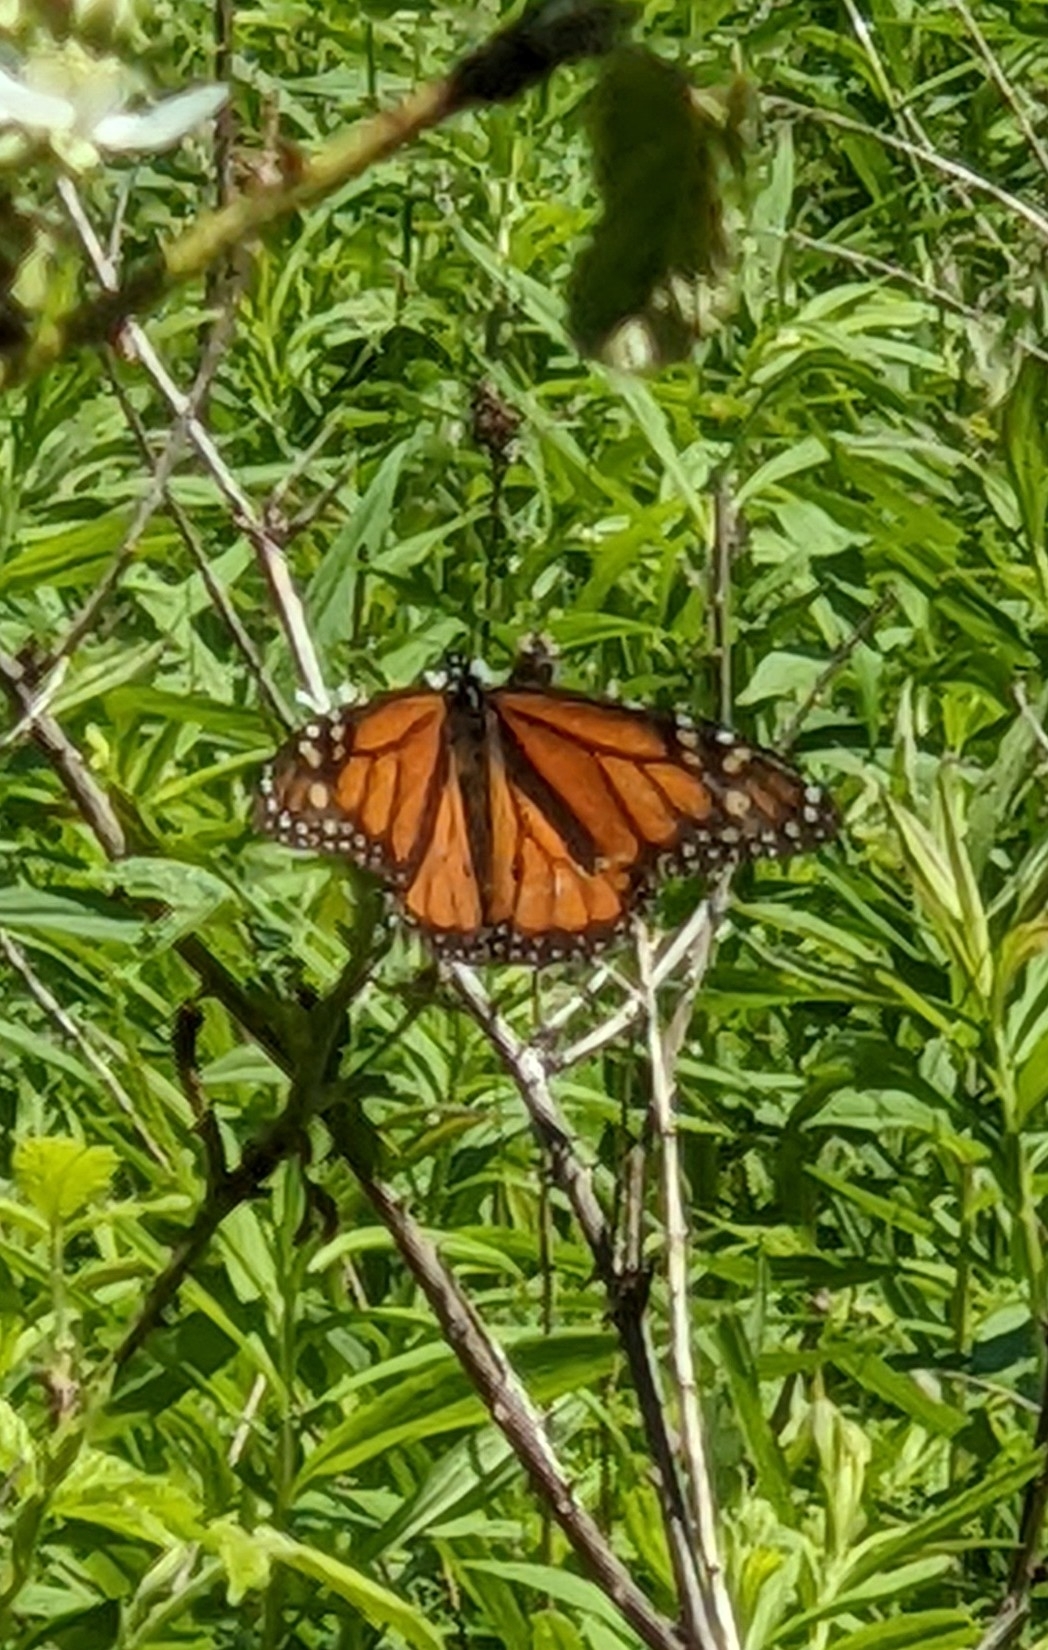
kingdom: Animalia
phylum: Arthropoda
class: Insecta
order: Lepidoptera
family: Nymphalidae
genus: Danaus
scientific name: Danaus plexippus
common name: Monarch
